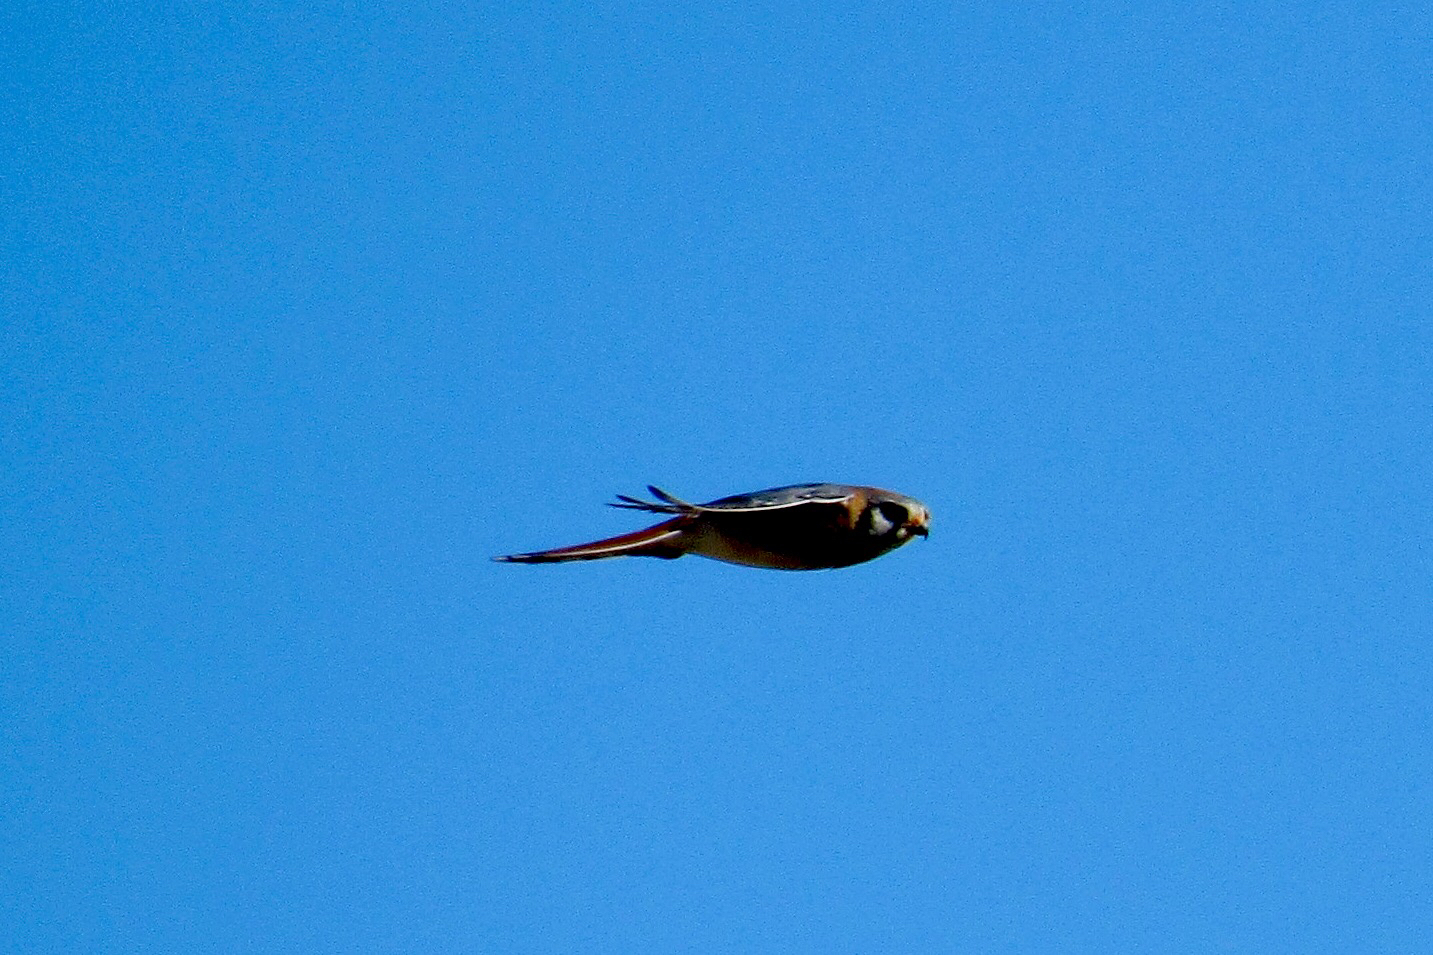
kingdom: Animalia
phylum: Chordata
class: Aves
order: Falconiformes
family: Falconidae
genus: Falco
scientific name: Falco sparverius
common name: American kestrel
